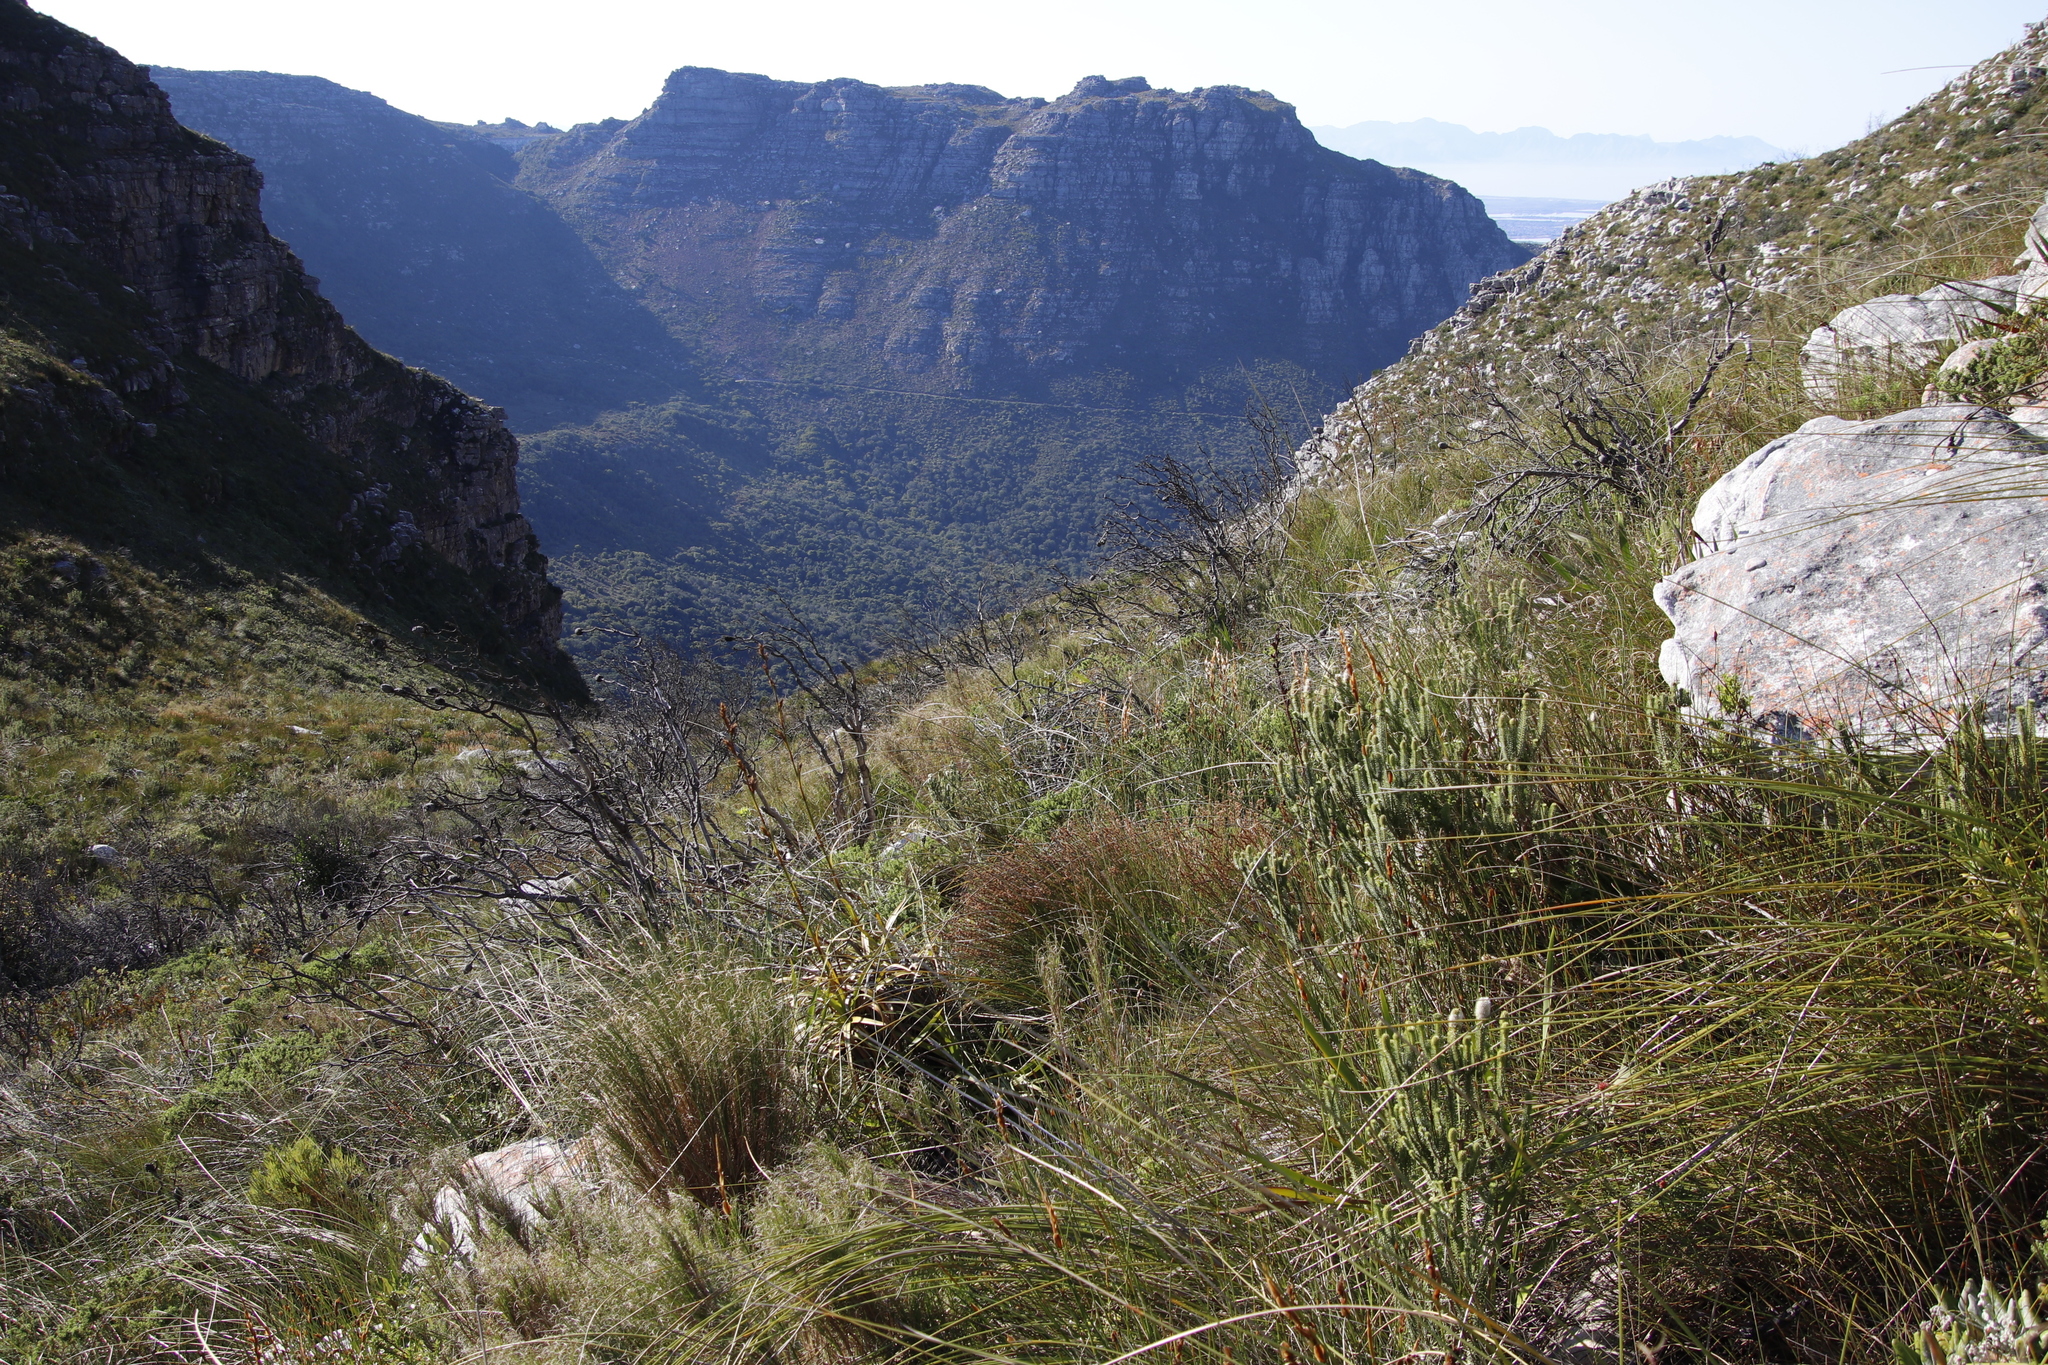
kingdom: Plantae
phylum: Tracheophyta
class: Magnoliopsida
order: Lamiales
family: Stilbaceae
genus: Stilbe
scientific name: Stilbe vestita
